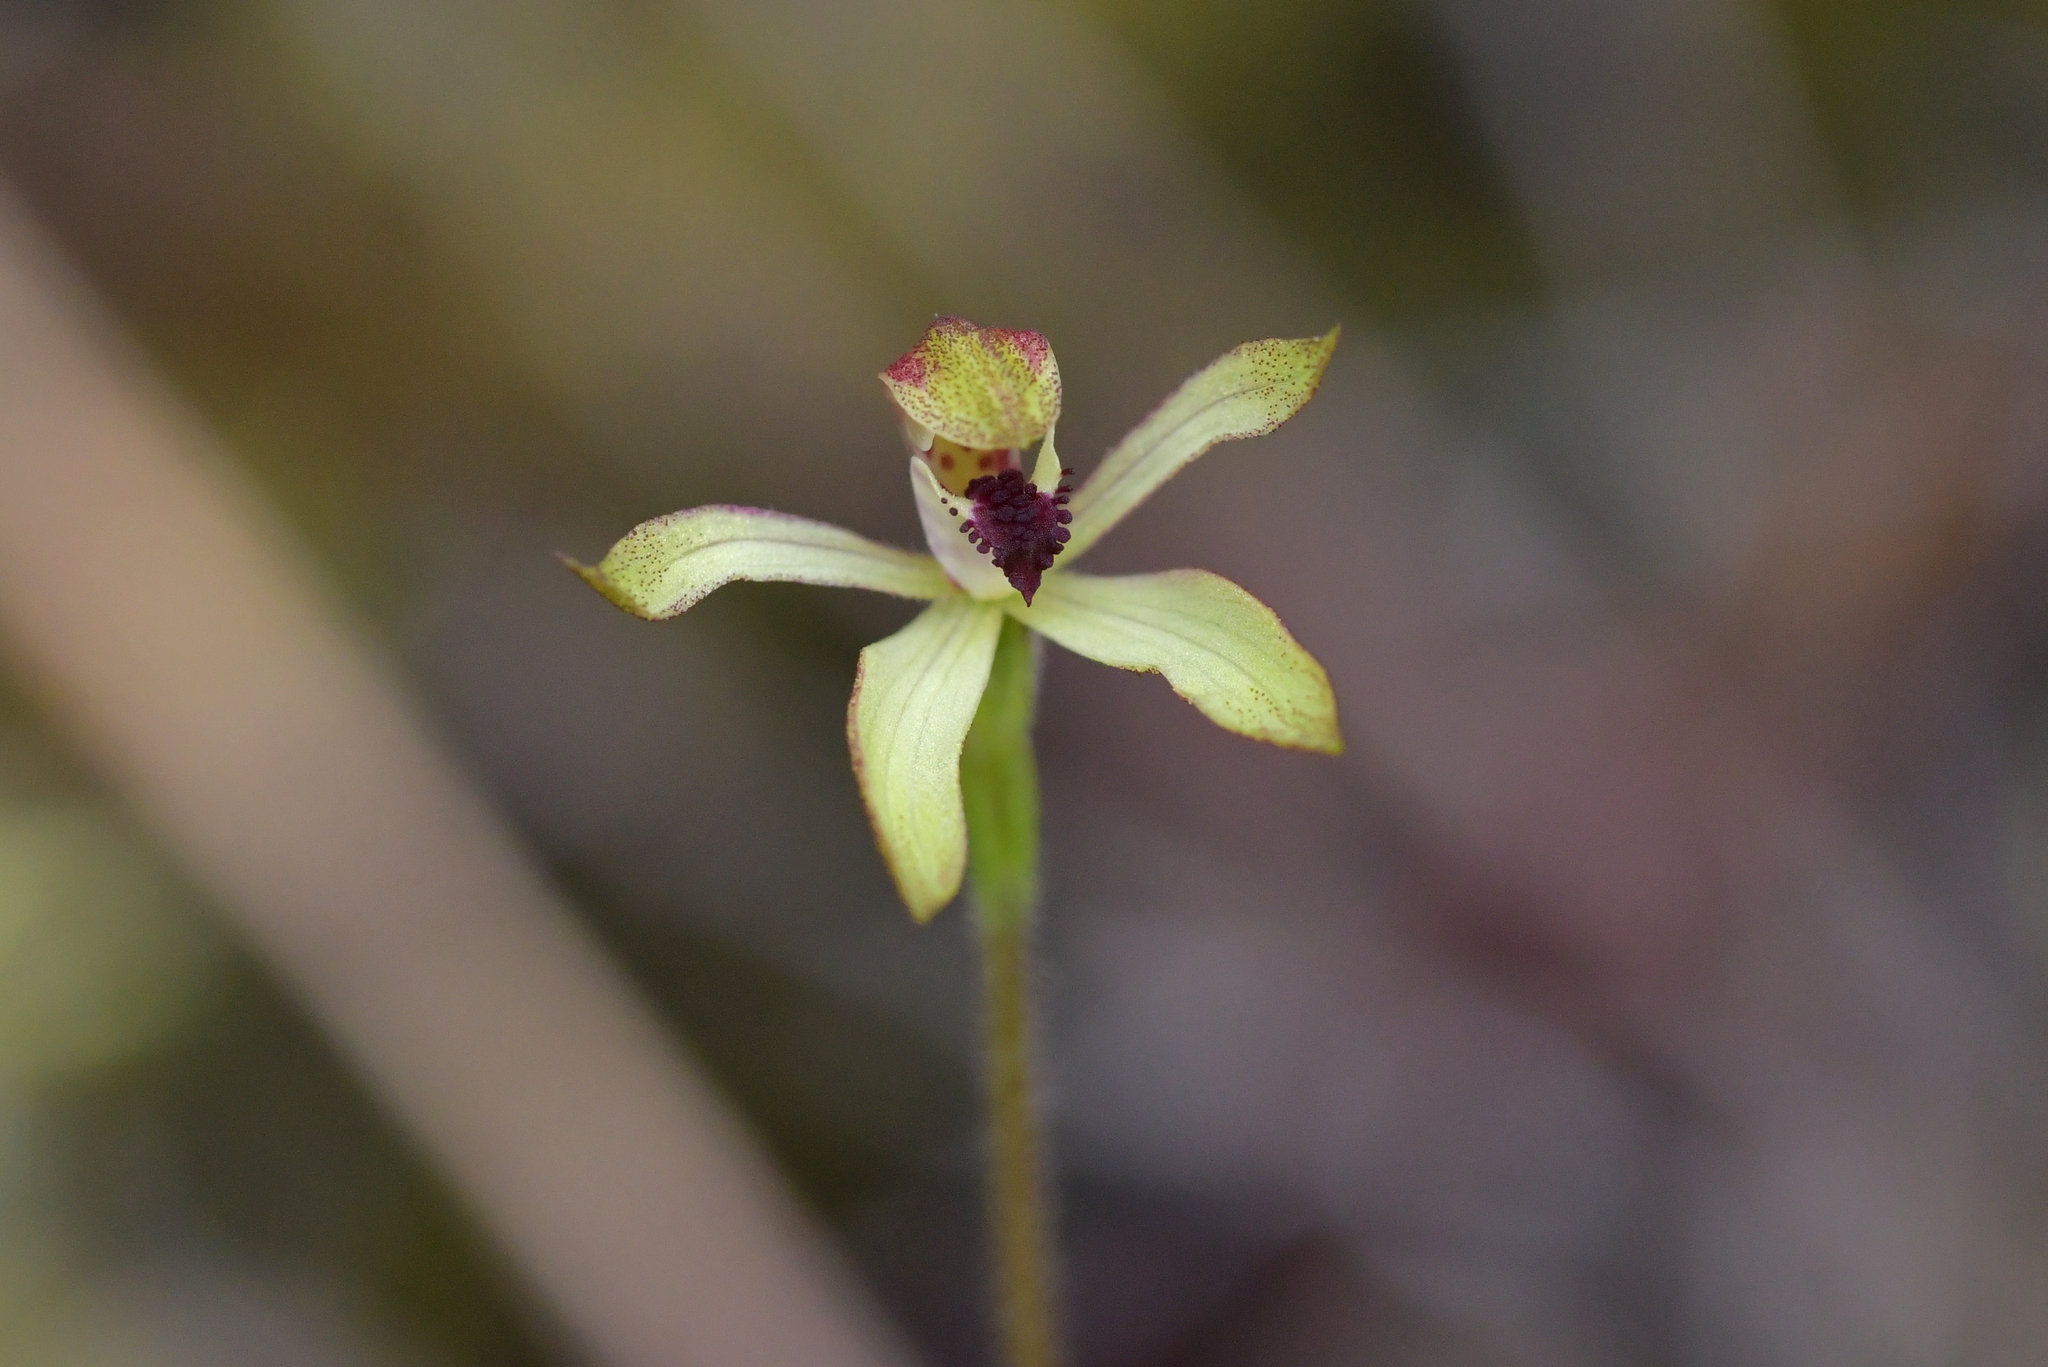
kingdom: Plantae
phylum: Tracheophyta
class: Liliopsida
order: Asparagales
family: Orchidaceae
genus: Caladenia
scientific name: Caladenia atradenia
